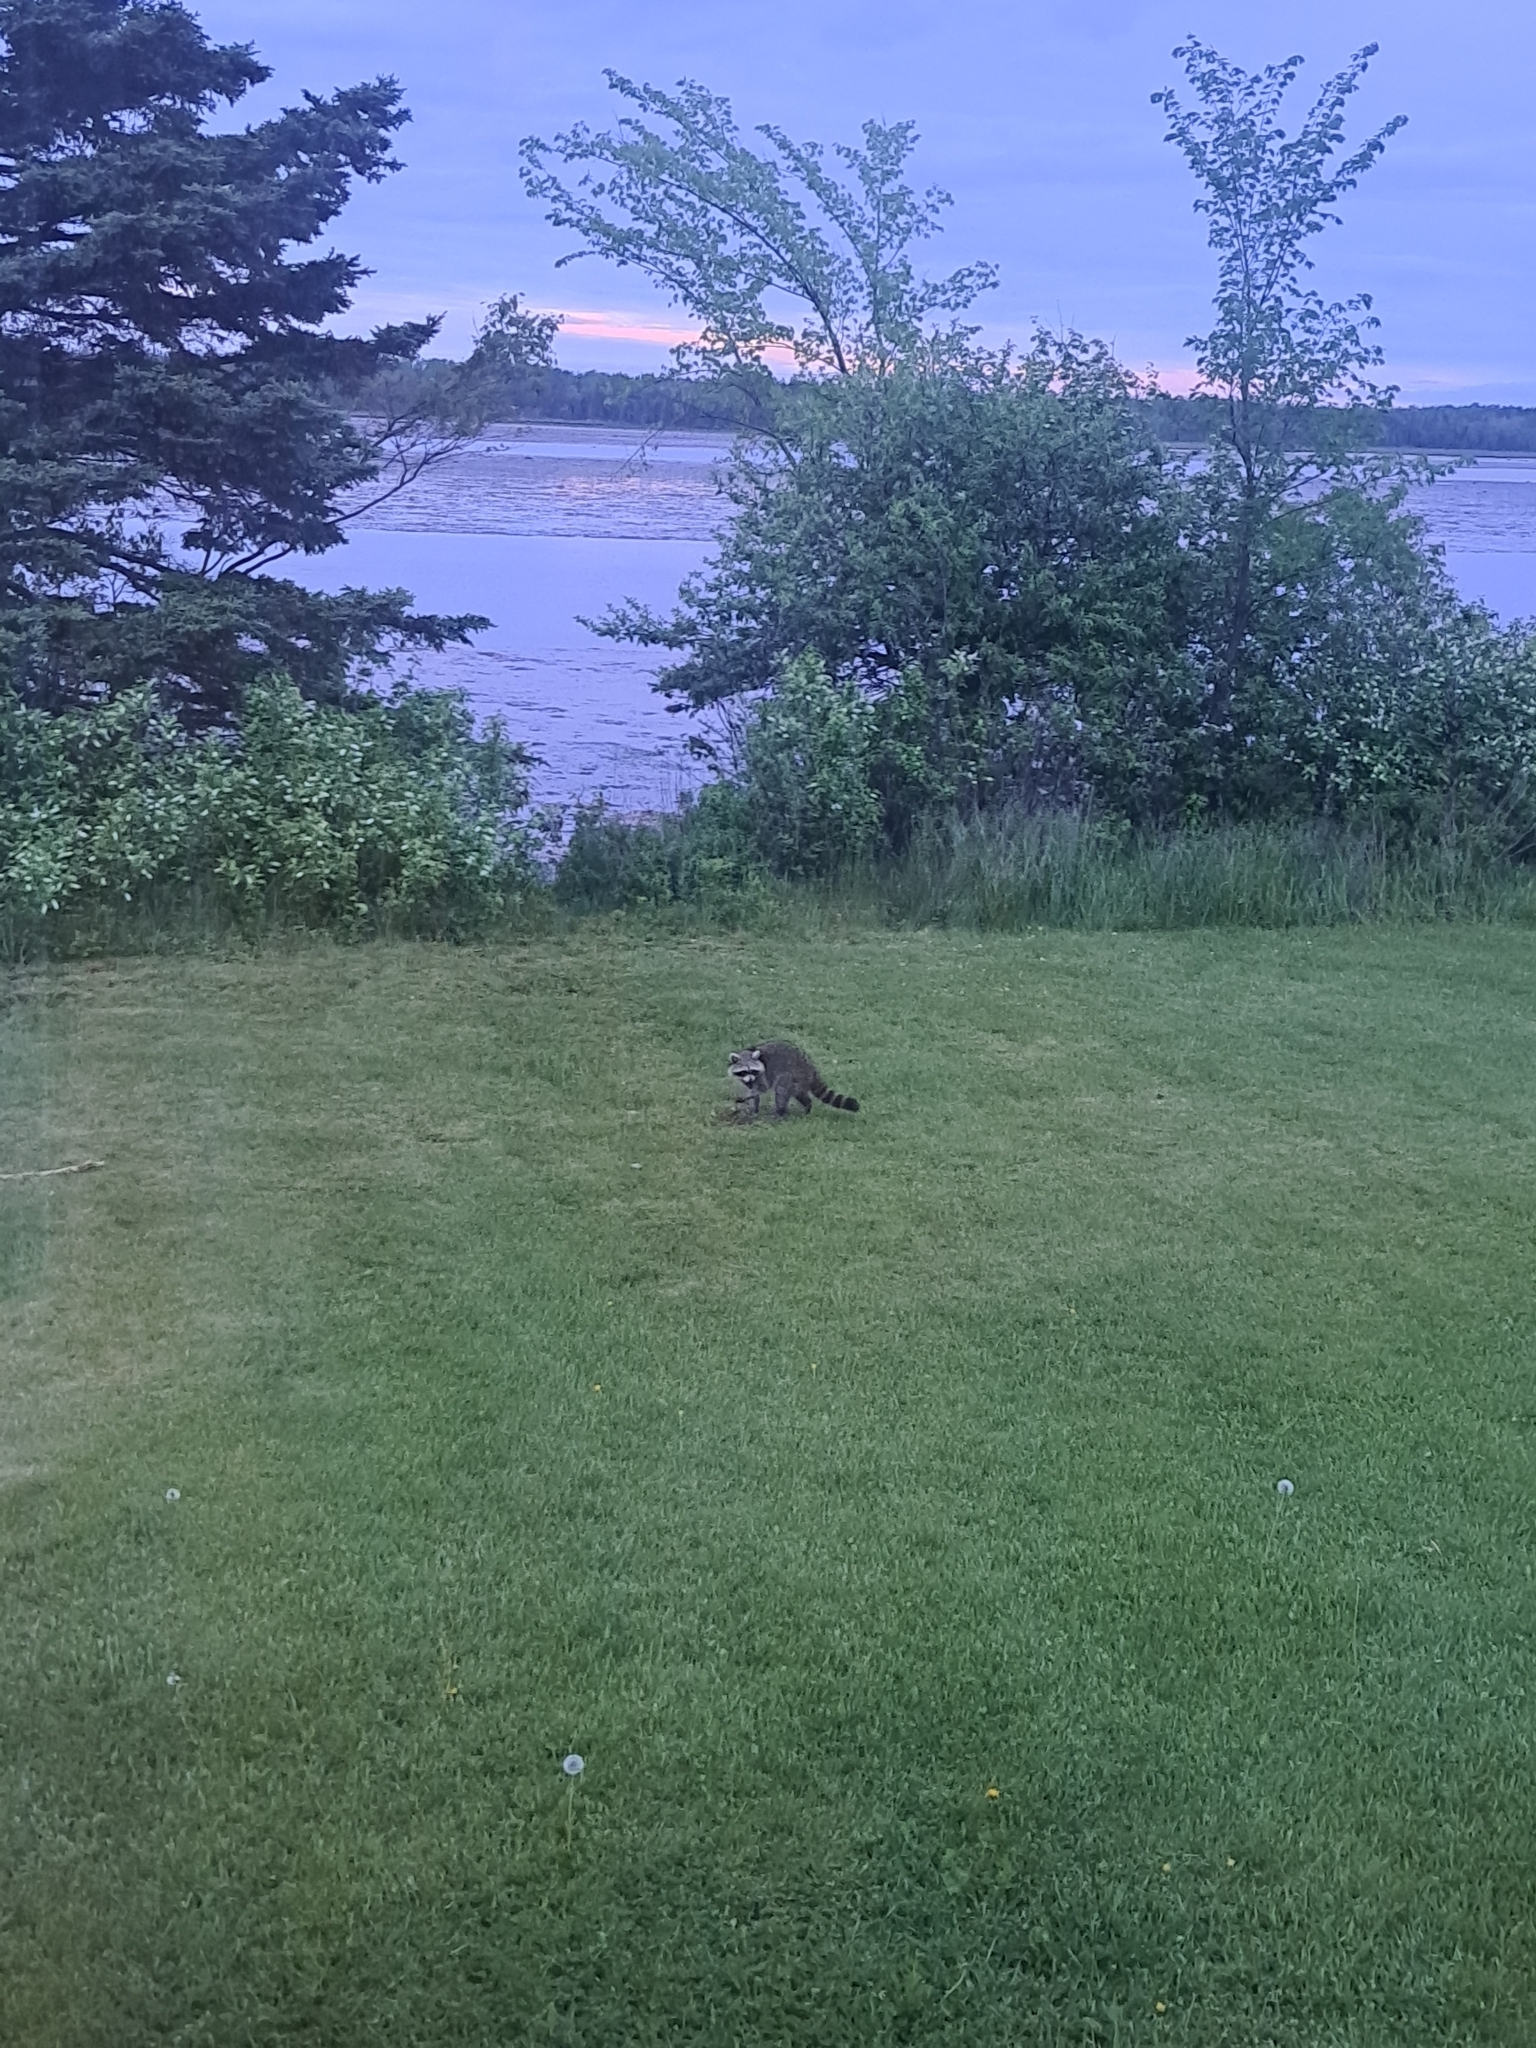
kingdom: Animalia
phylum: Chordata
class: Mammalia
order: Carnivora
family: Procyonidae
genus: Procyon
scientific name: Procyon lotor
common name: Raccoon
